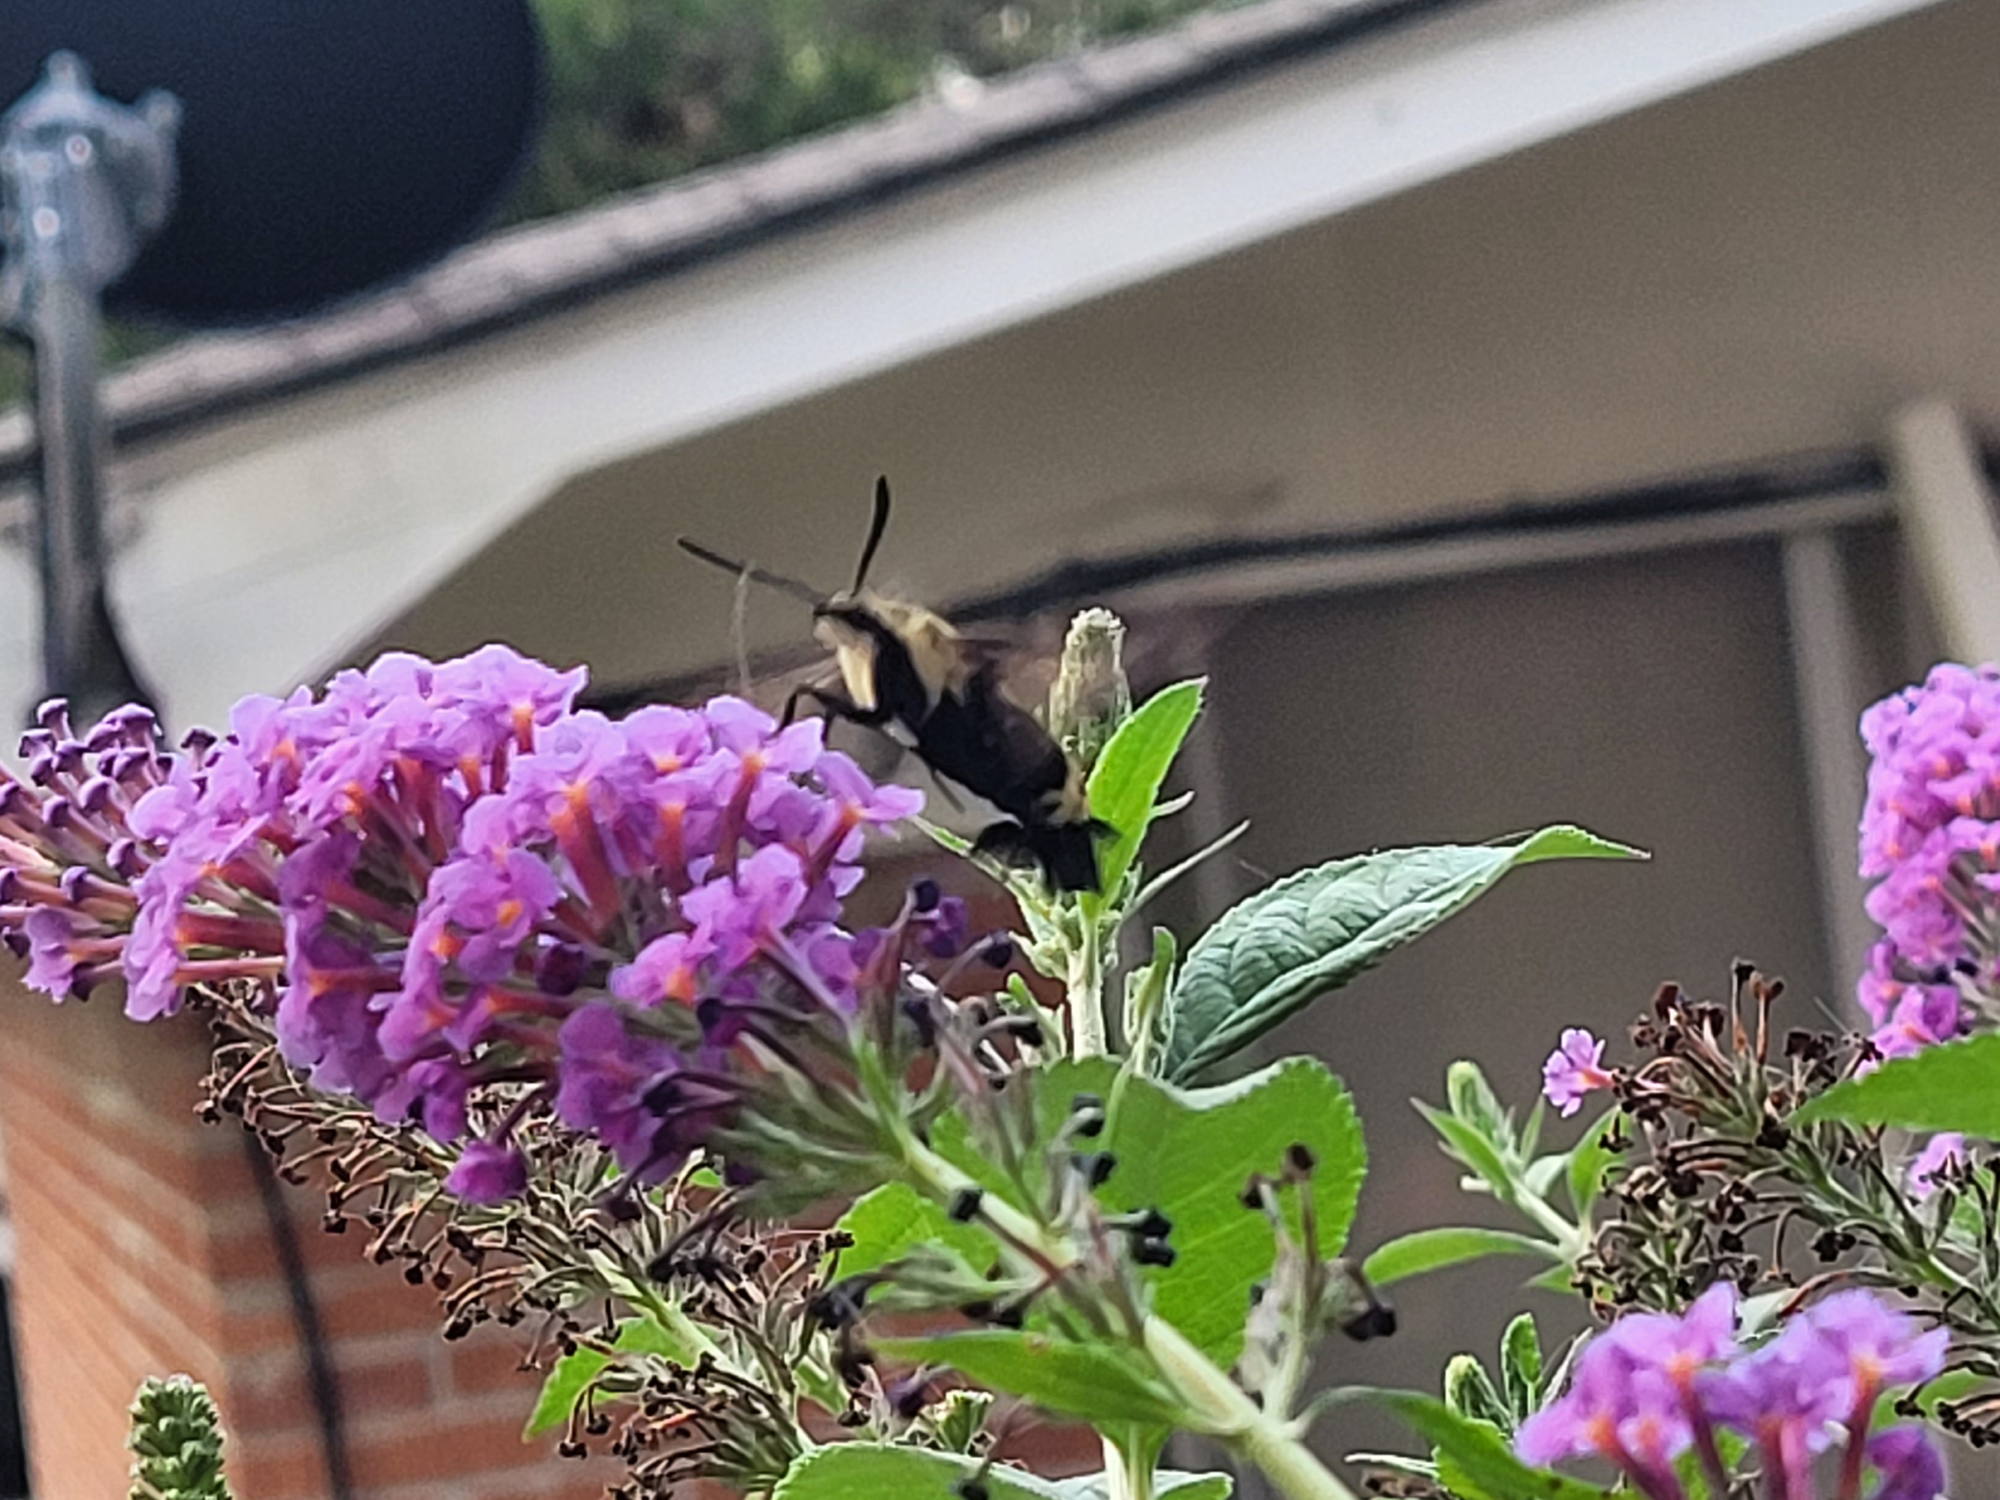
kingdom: Animalia
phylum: Arthropoda
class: Insecta
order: Lepidoptera
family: Sphingidae
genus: Hemaris
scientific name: Hemaris diffinis
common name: Bumblebee moth
